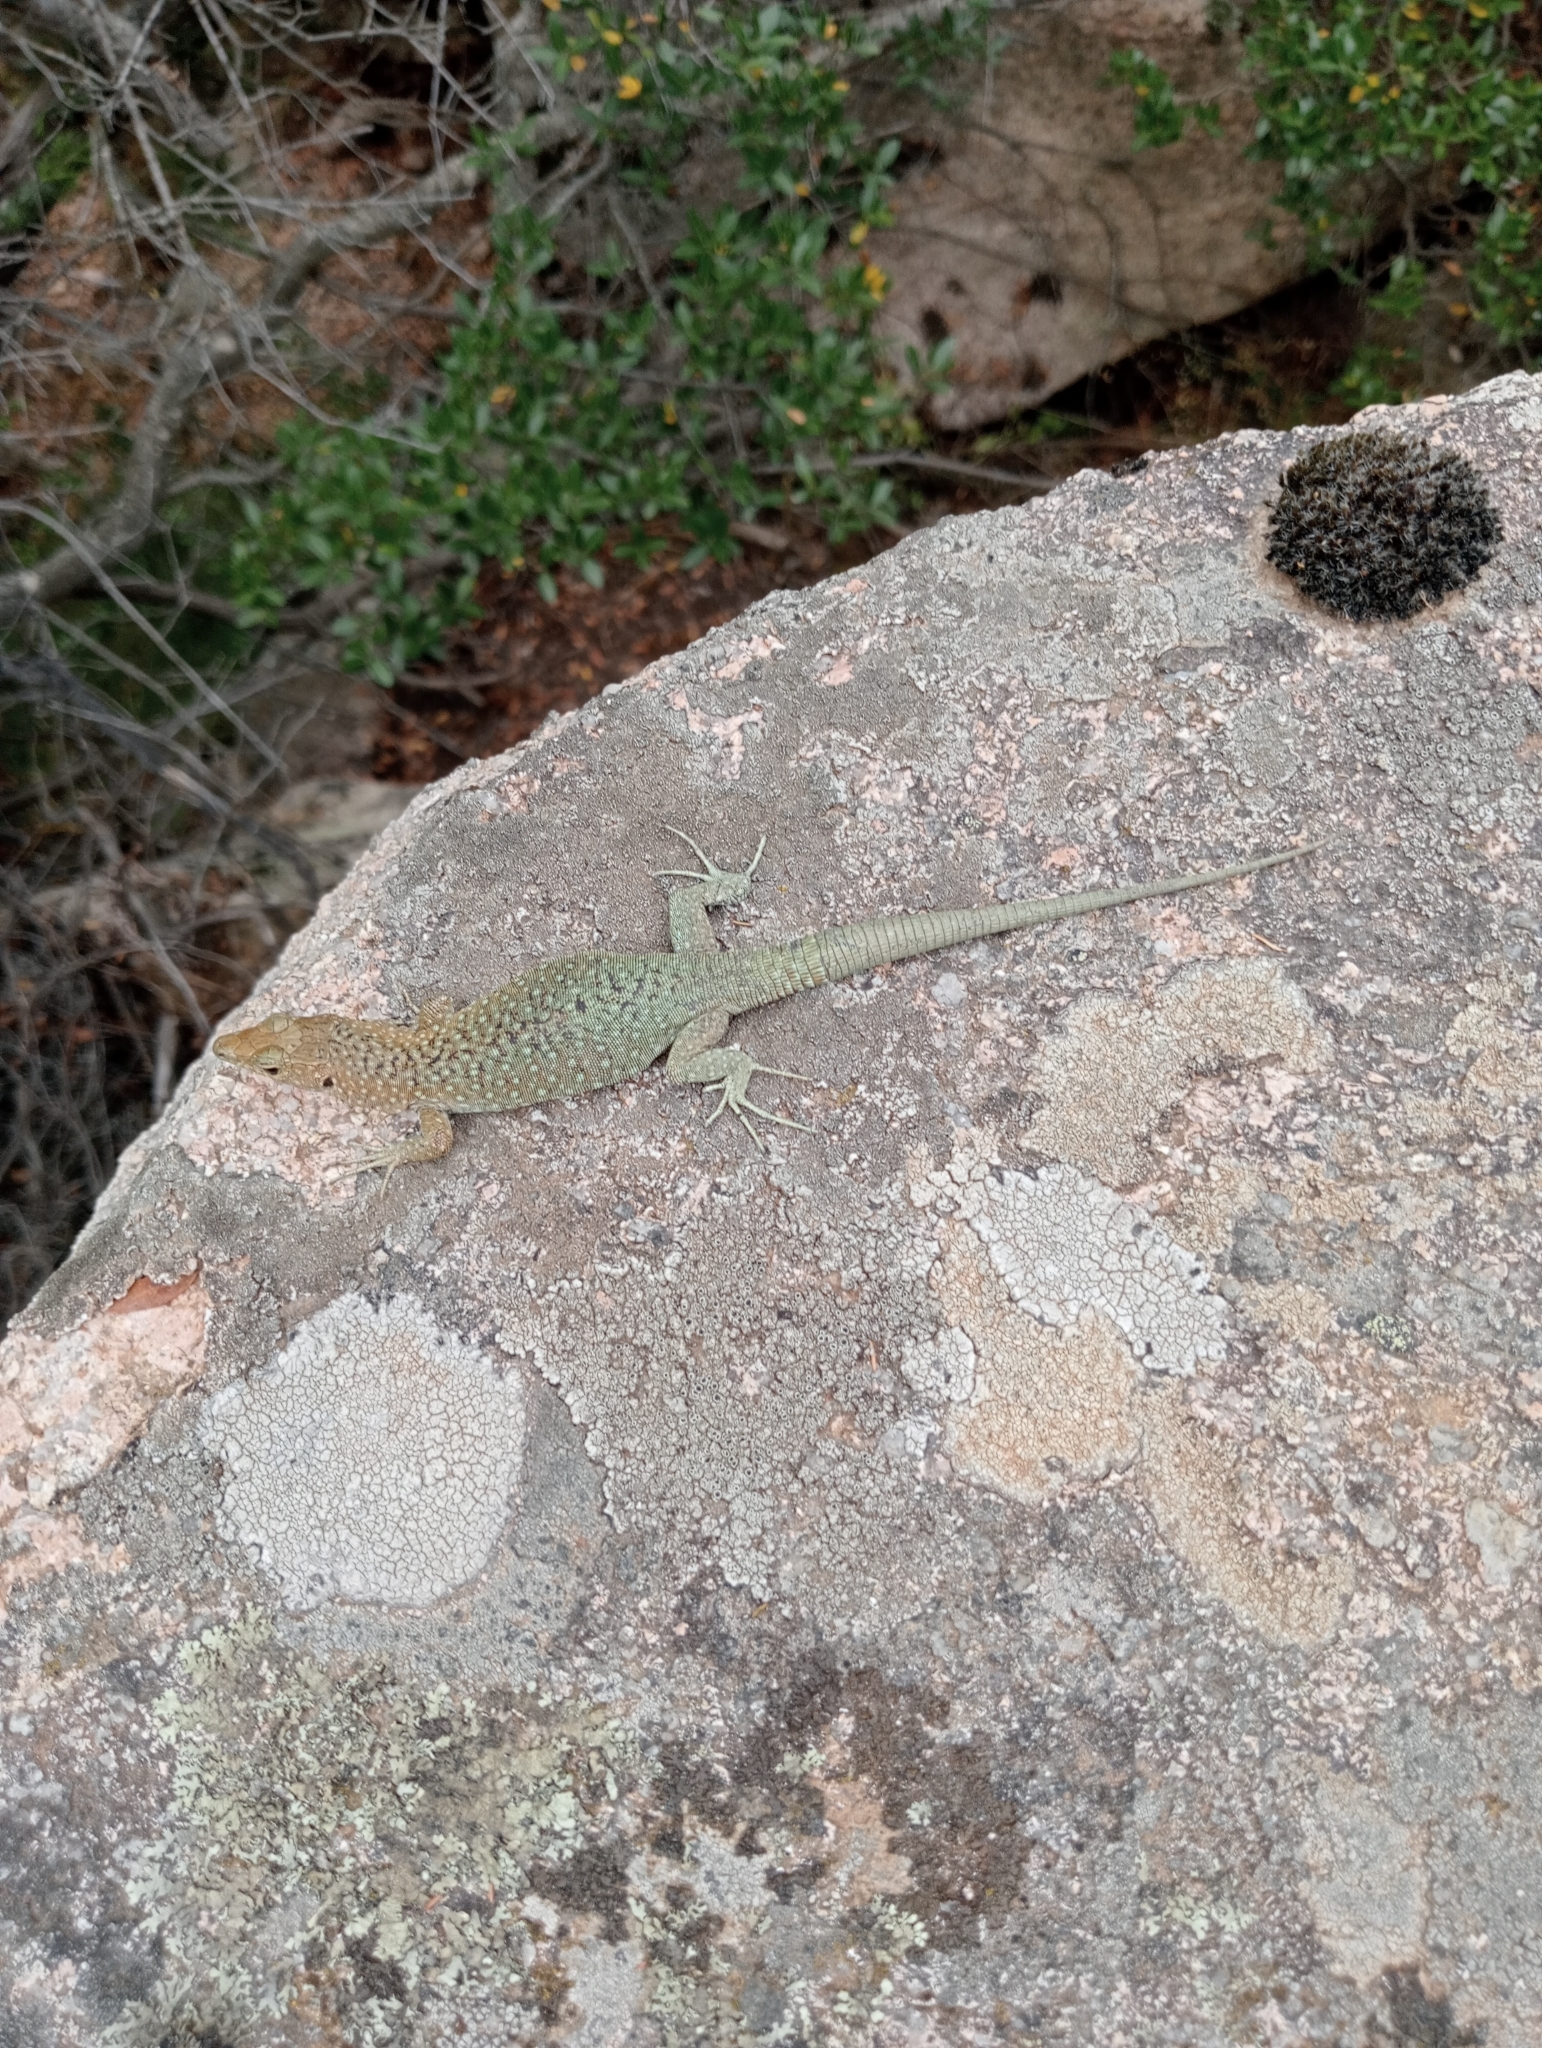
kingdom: Animalia
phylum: Chordata
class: Squamata
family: Lacertidae
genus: Archaeolacerta
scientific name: Archaeolacerta bedriagae
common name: Bedriaga's rock lizard
